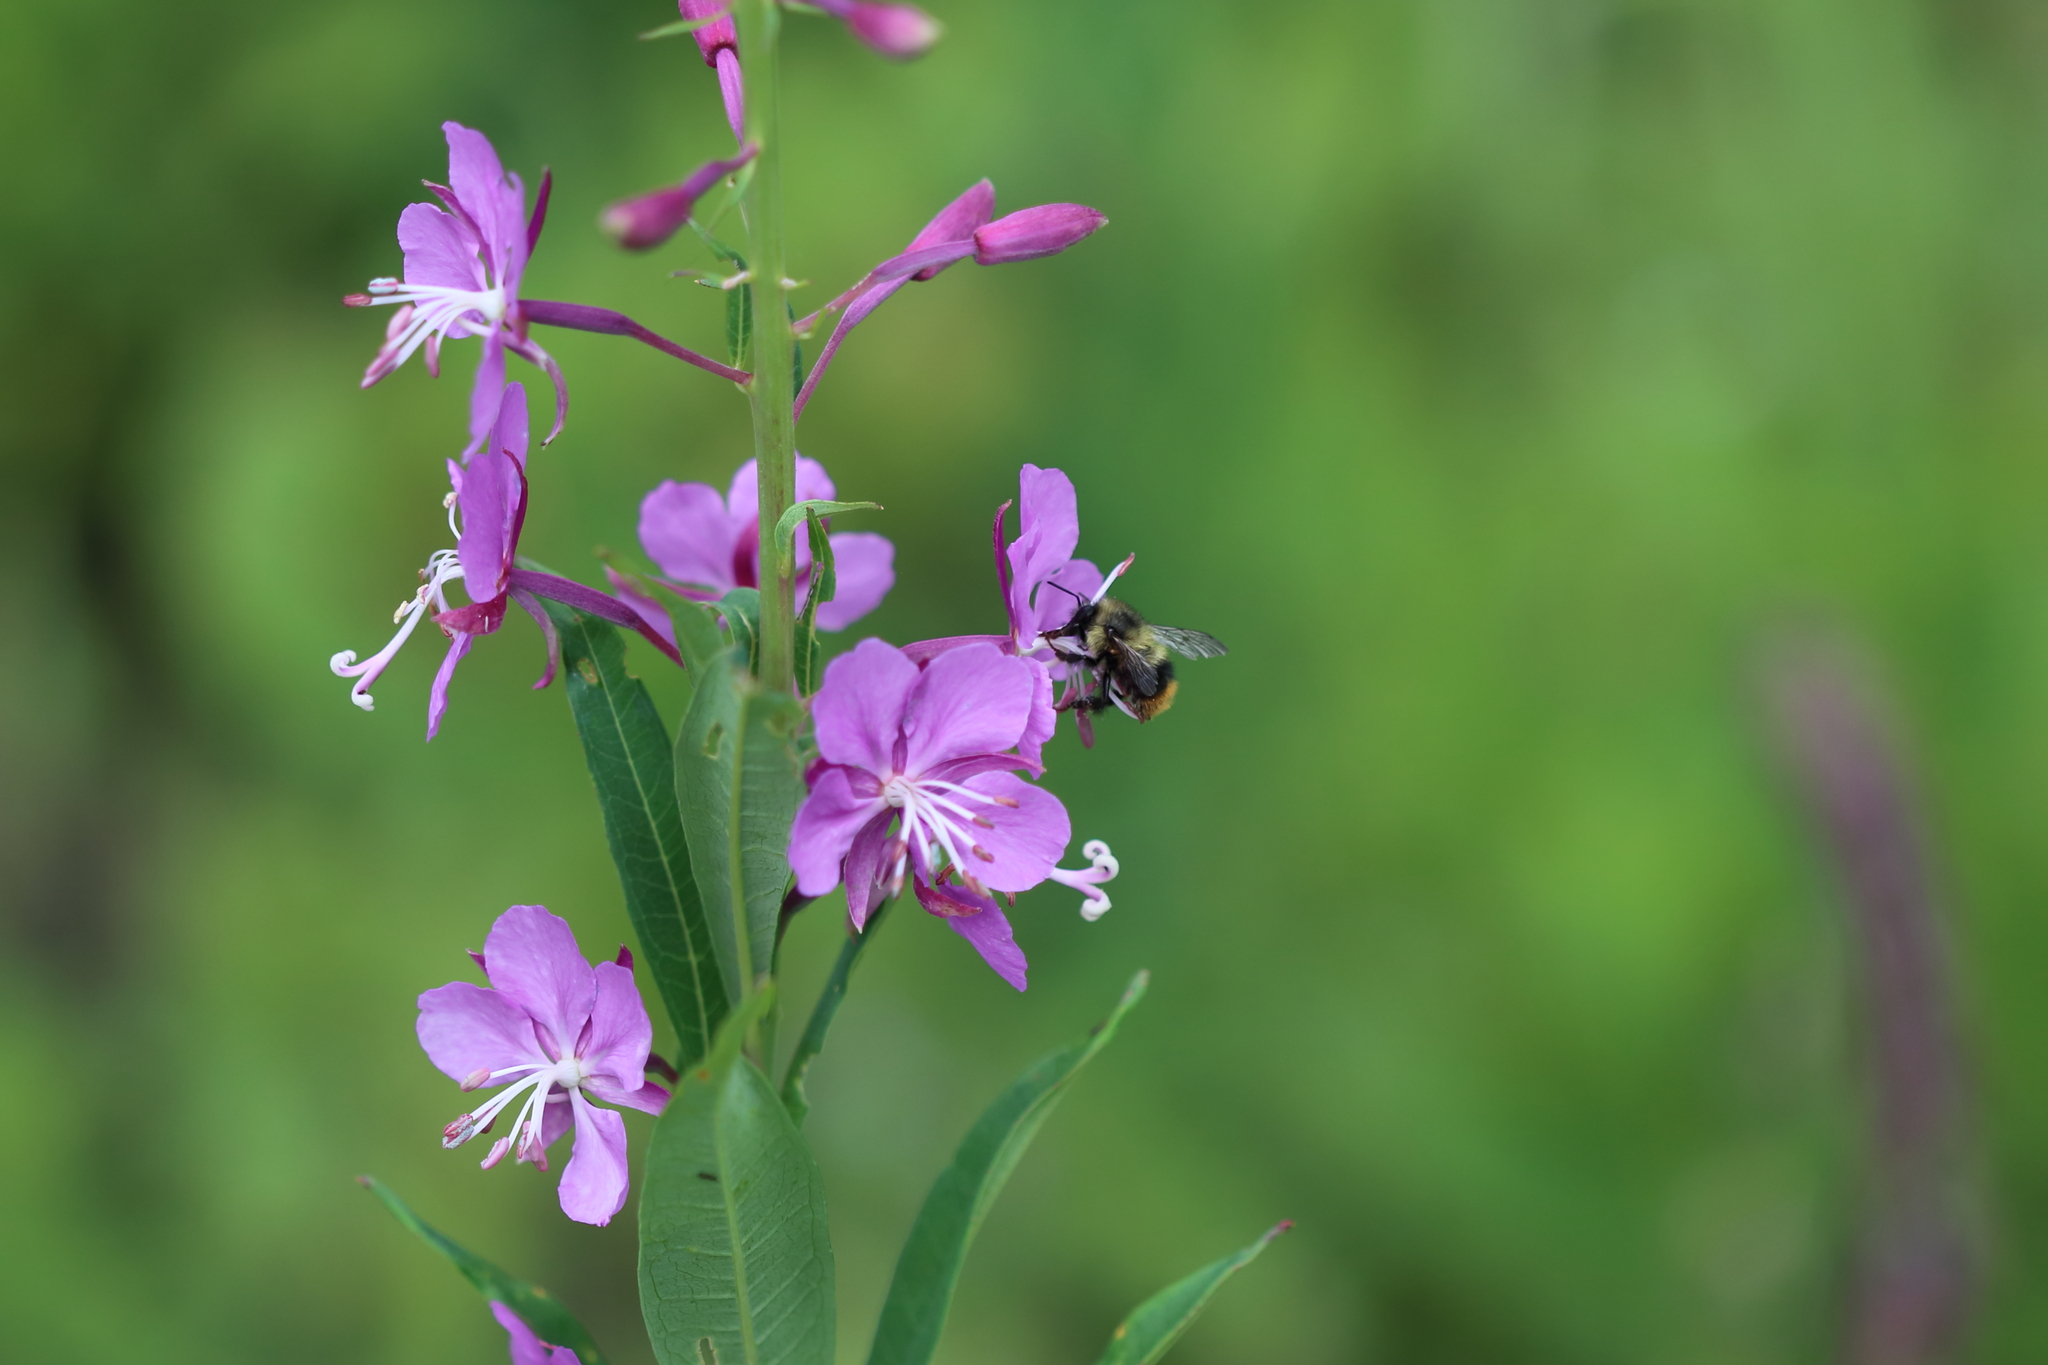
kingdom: Plantae
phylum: Tracheophyta
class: Magnoliopsida
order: Myrtales
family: Onagraceae
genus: Chamaenerion
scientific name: Chamaenerion angustifolium
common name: Fireweed
